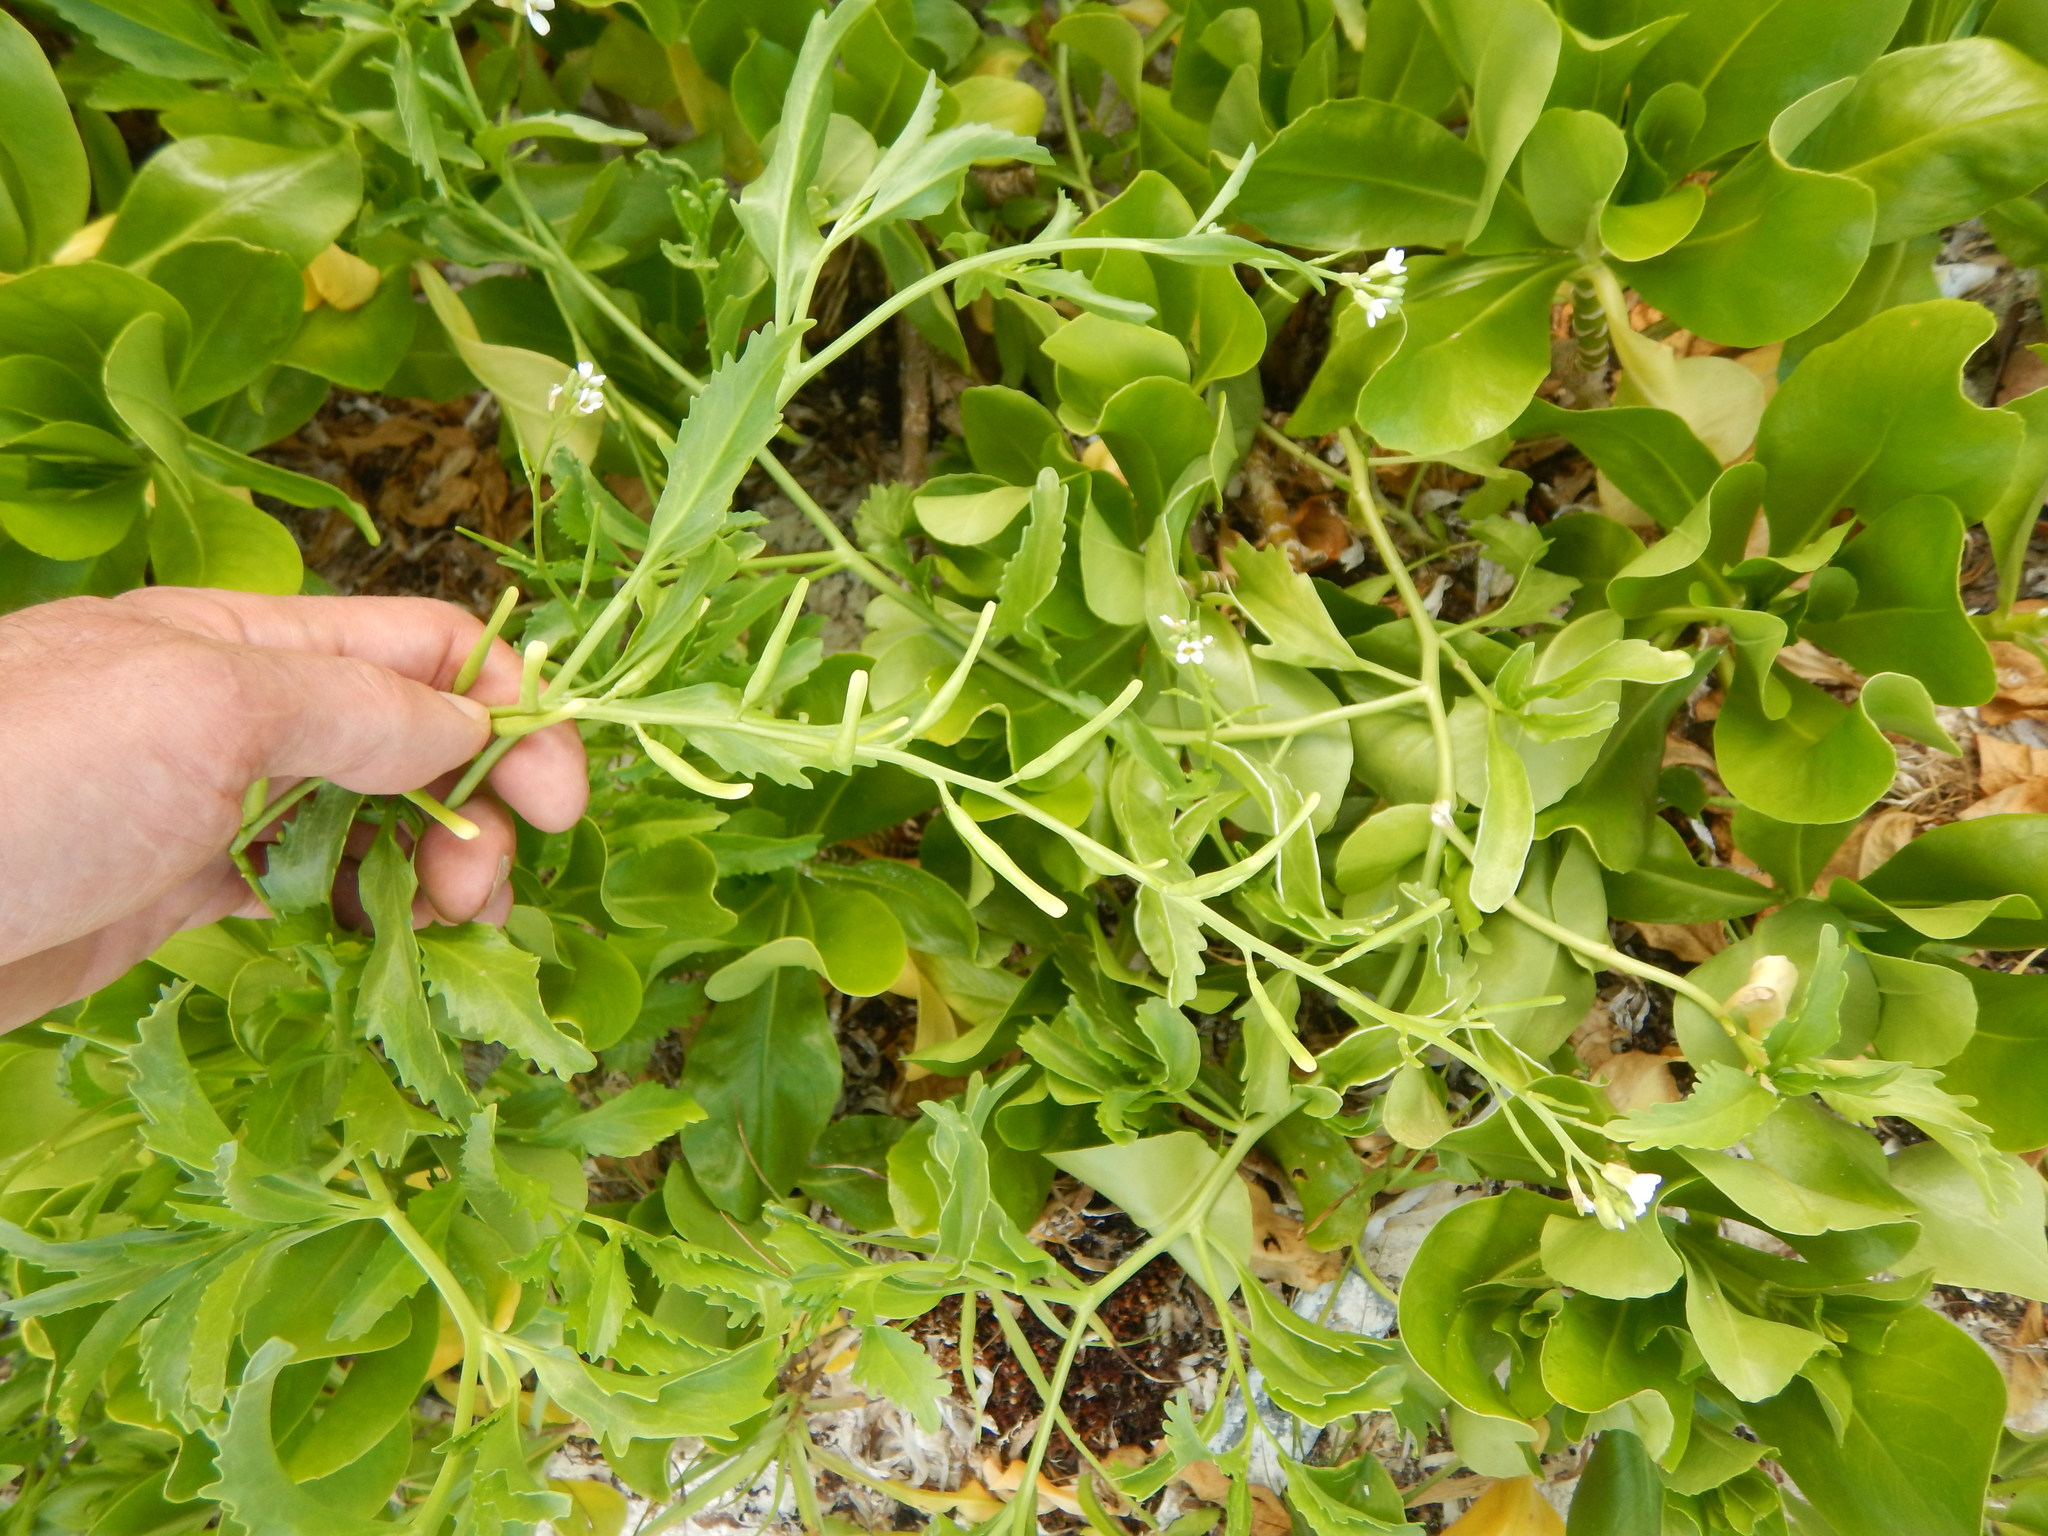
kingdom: Plantae
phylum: Tracheophyta
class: Magnoliopsida
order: Brassicales
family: Brassicaceae
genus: Cakile
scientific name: Cakile lanceolata
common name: Sea rocket
